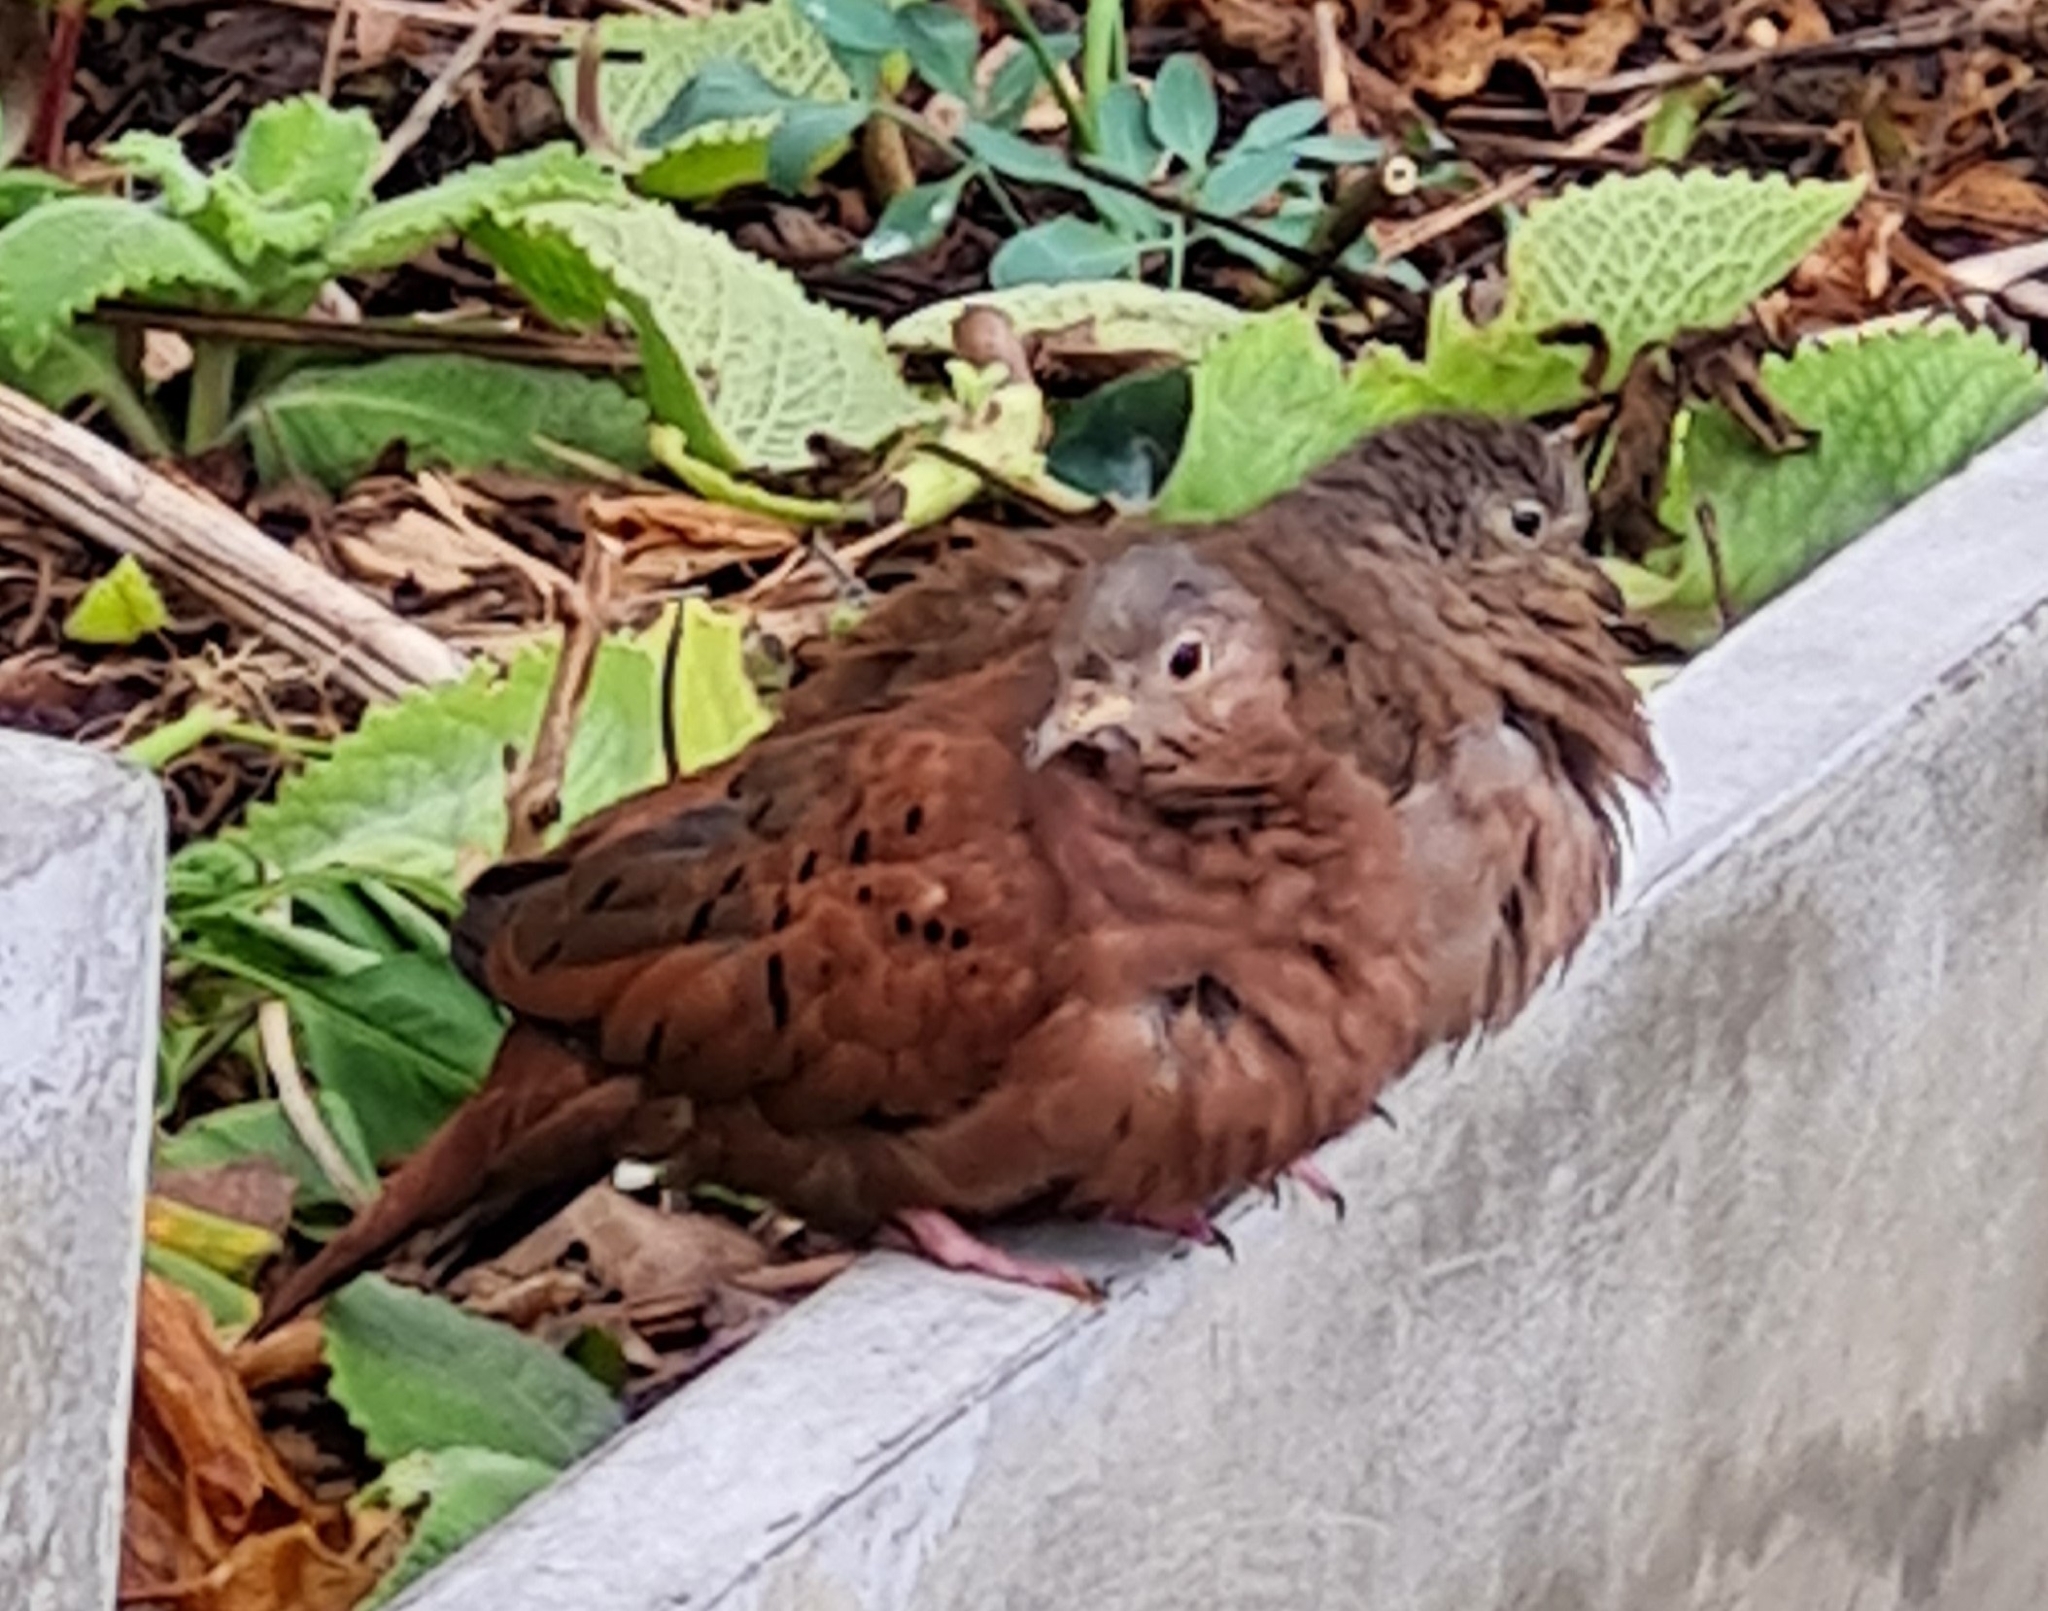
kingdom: Animalia
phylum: Chordata
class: Aves
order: Columbiformes
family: Columbidae
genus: Columbina
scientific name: Columbina talpacoti
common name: Ruddy ground dove
